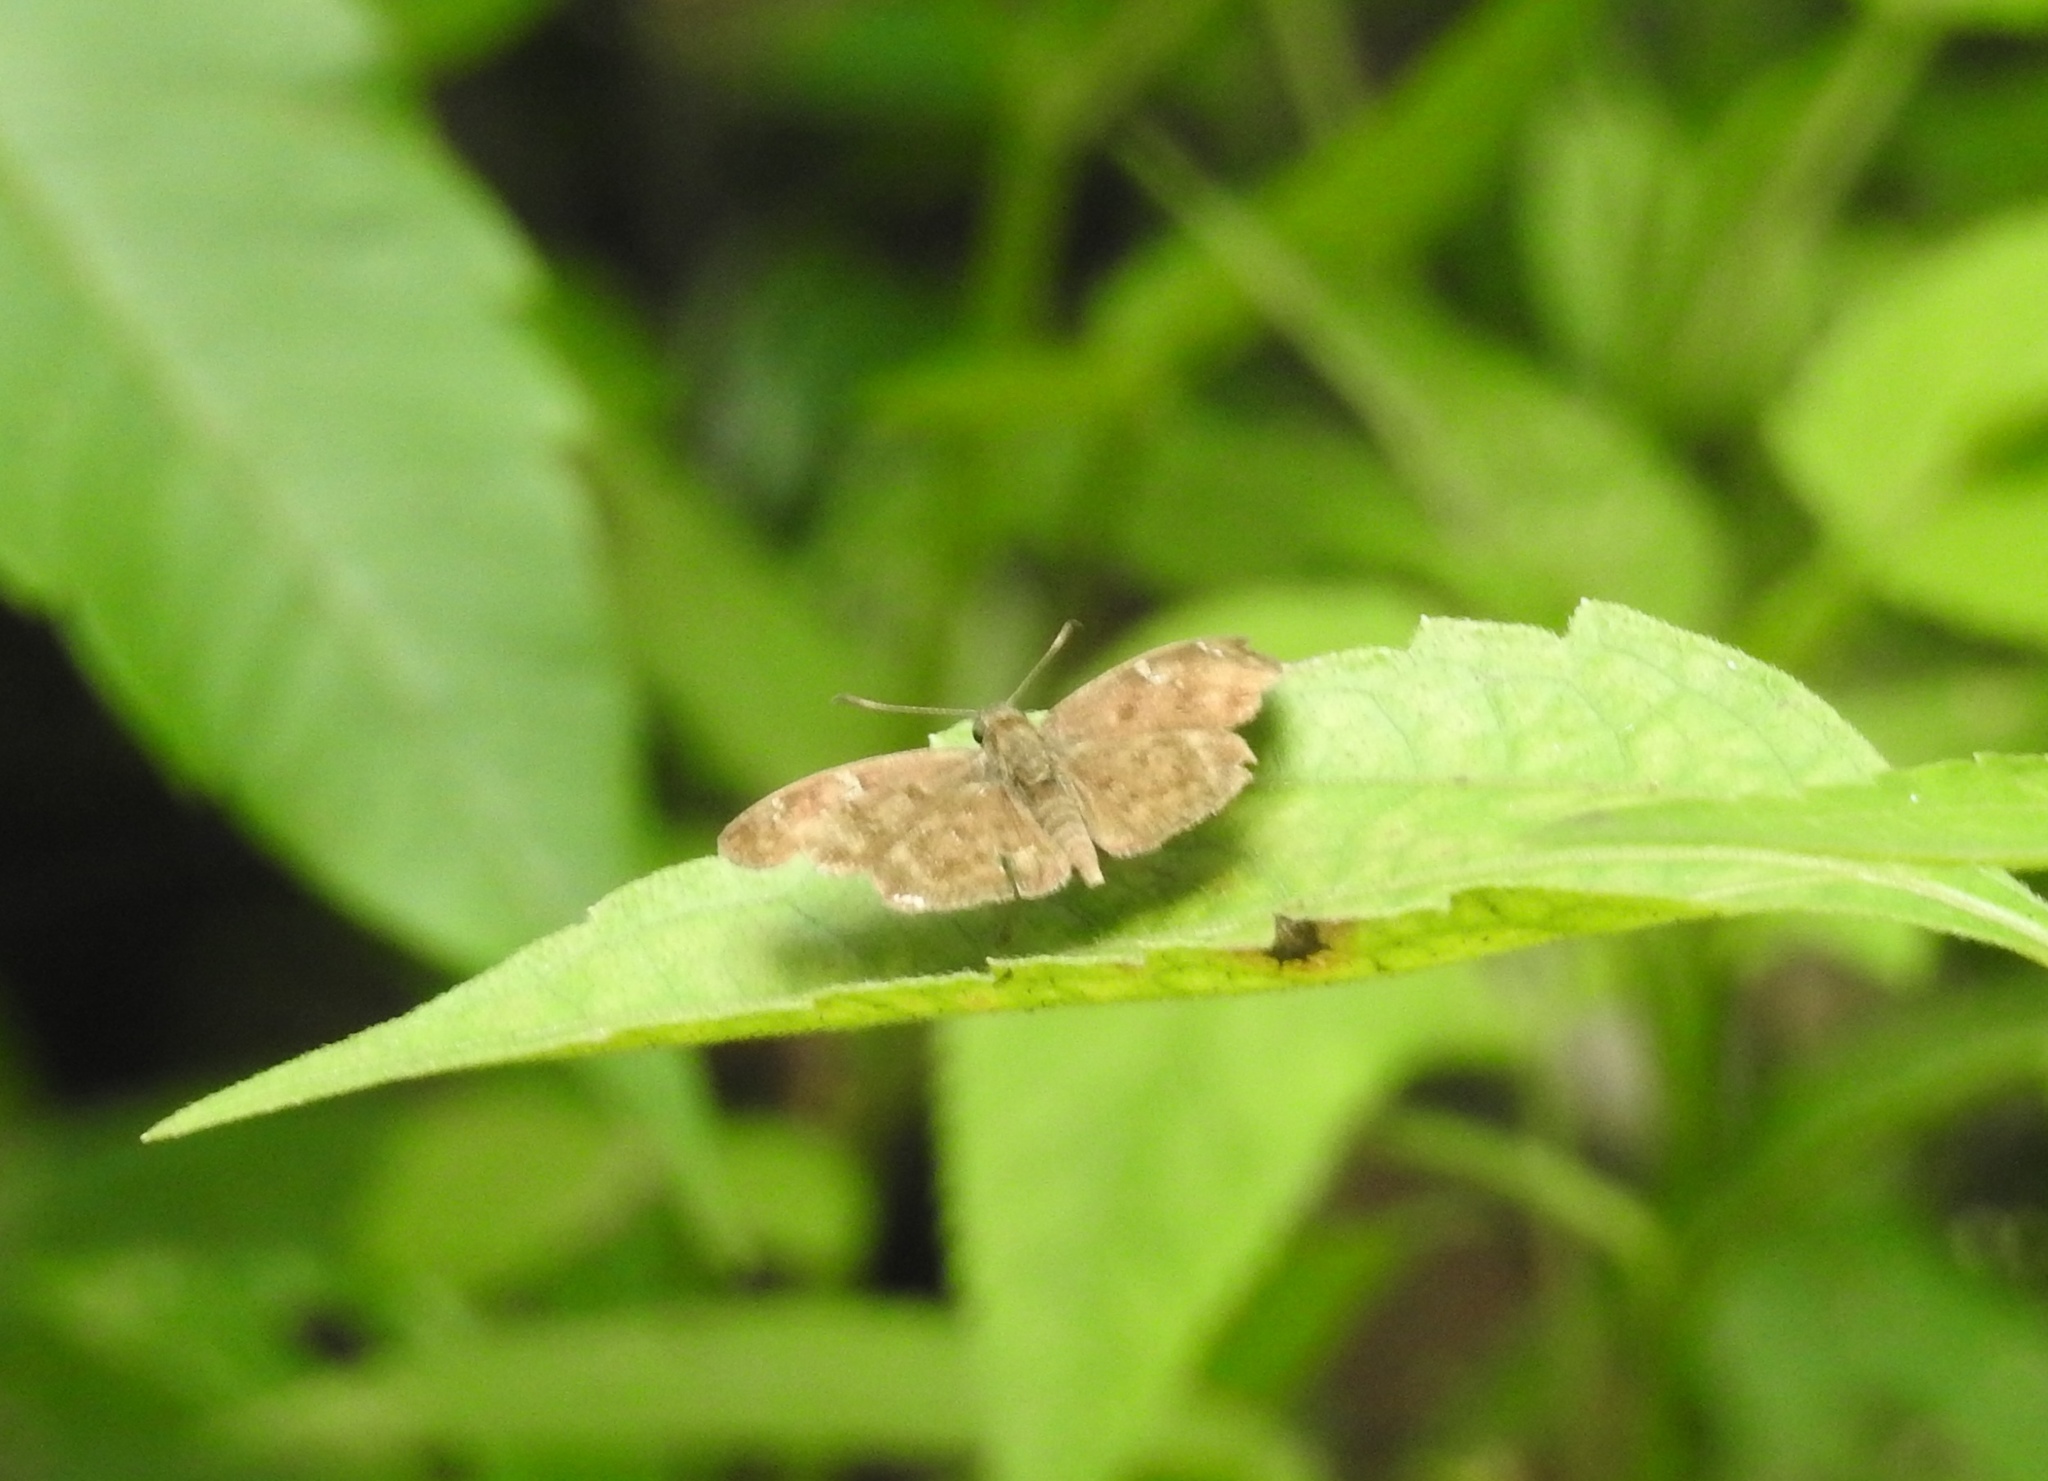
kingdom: Animalia
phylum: Arthropoda
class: Insecta
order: Lepidoptera
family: Hesperiidae
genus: Sarangesa
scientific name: Sarangesa dasahara
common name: Common small flat
